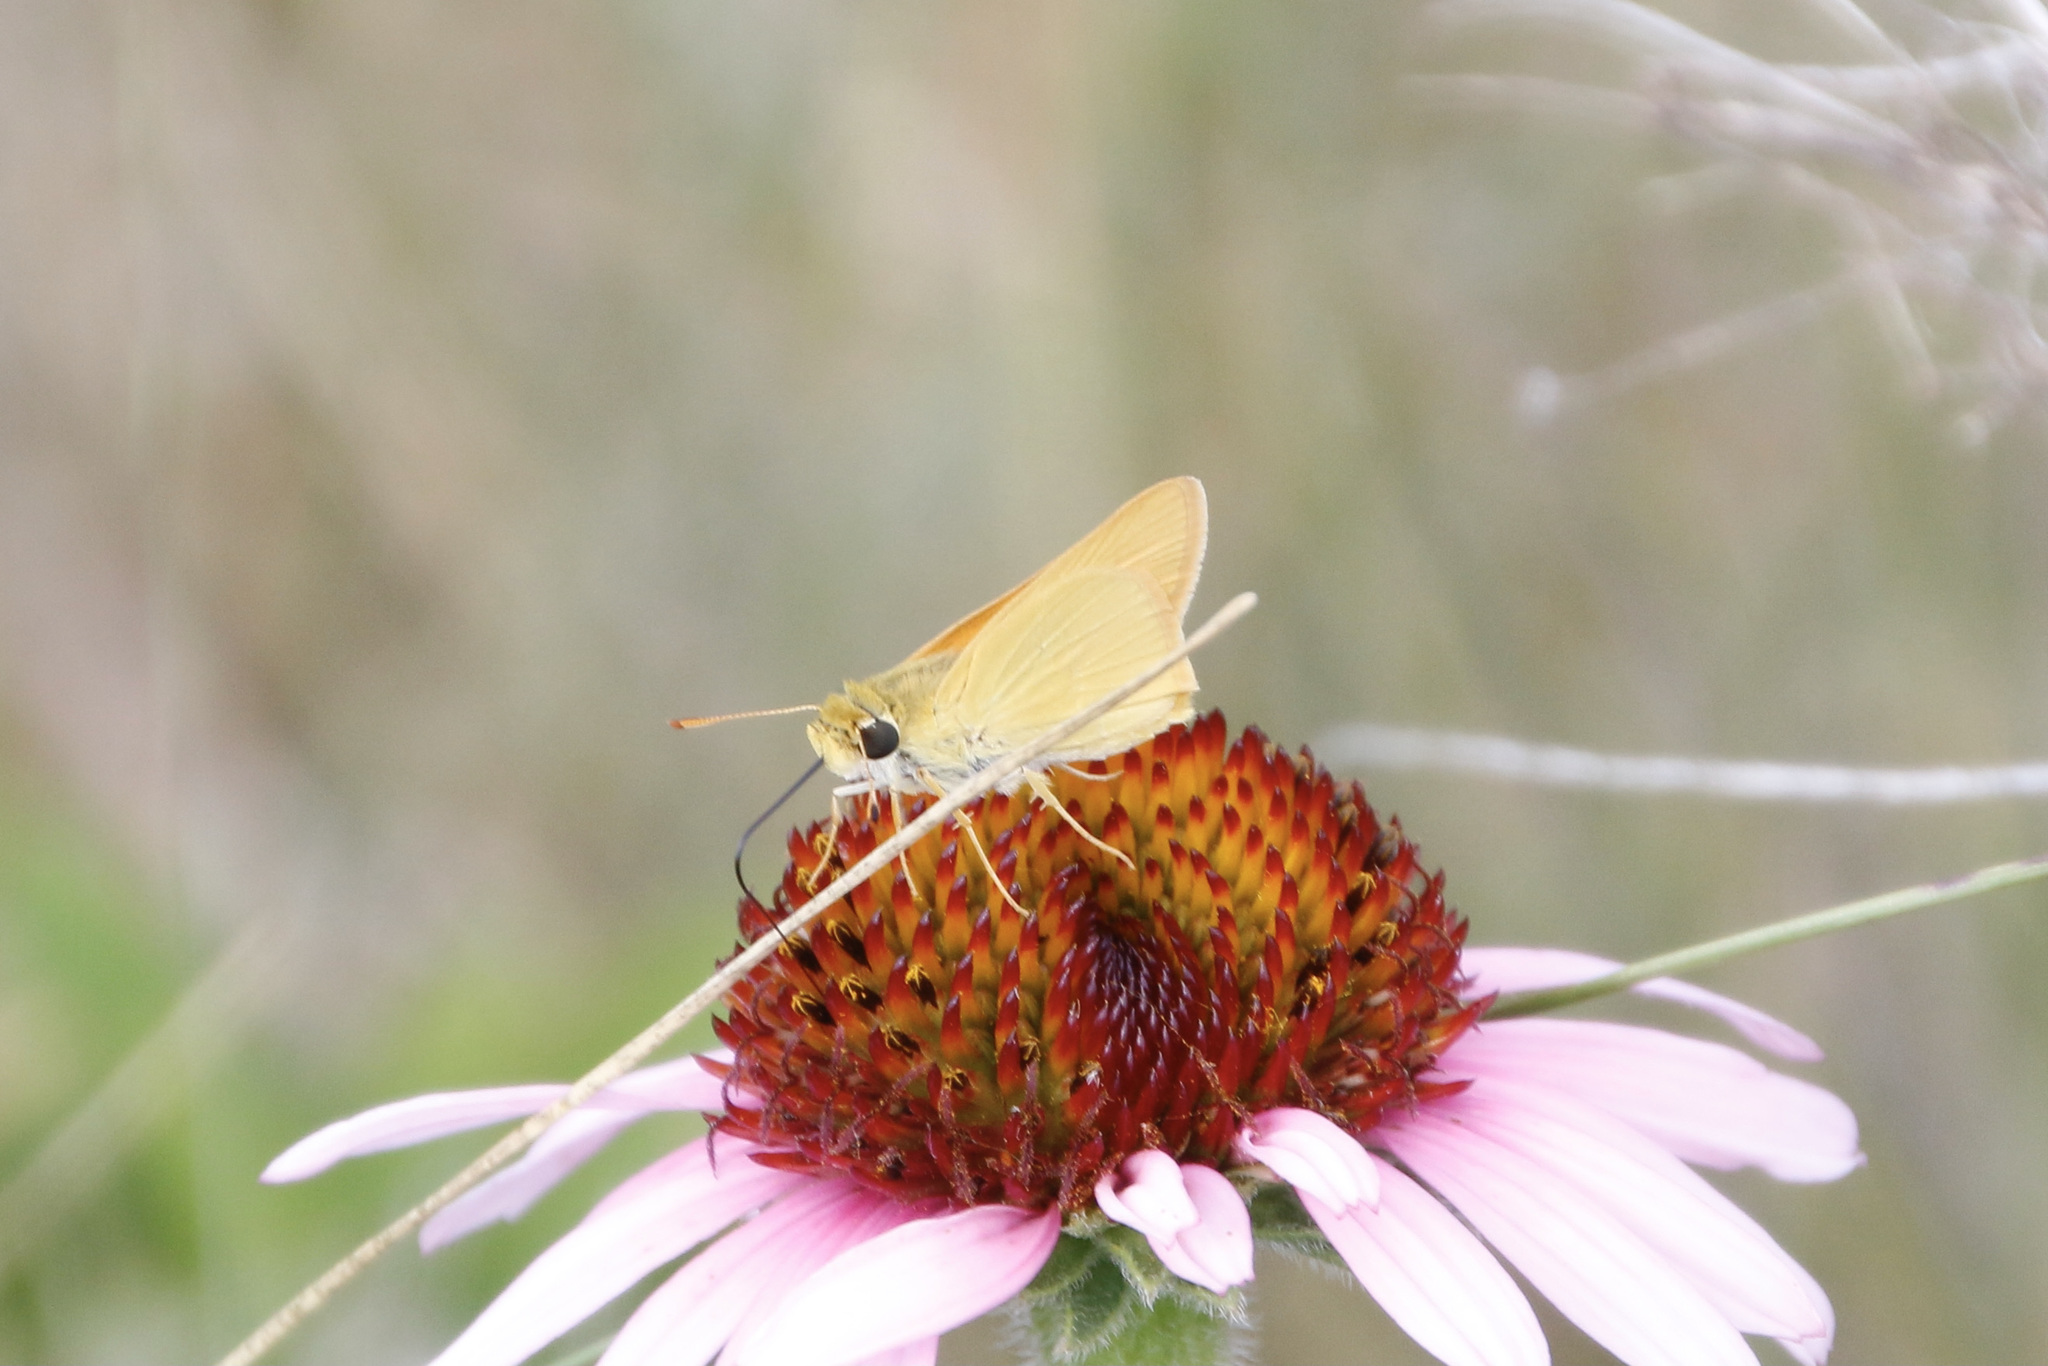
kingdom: Animalia
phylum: Arthropoda
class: Insecta
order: Lepidoptera
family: Hesperiidae
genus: Atrytone
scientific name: Atrytone delaware
